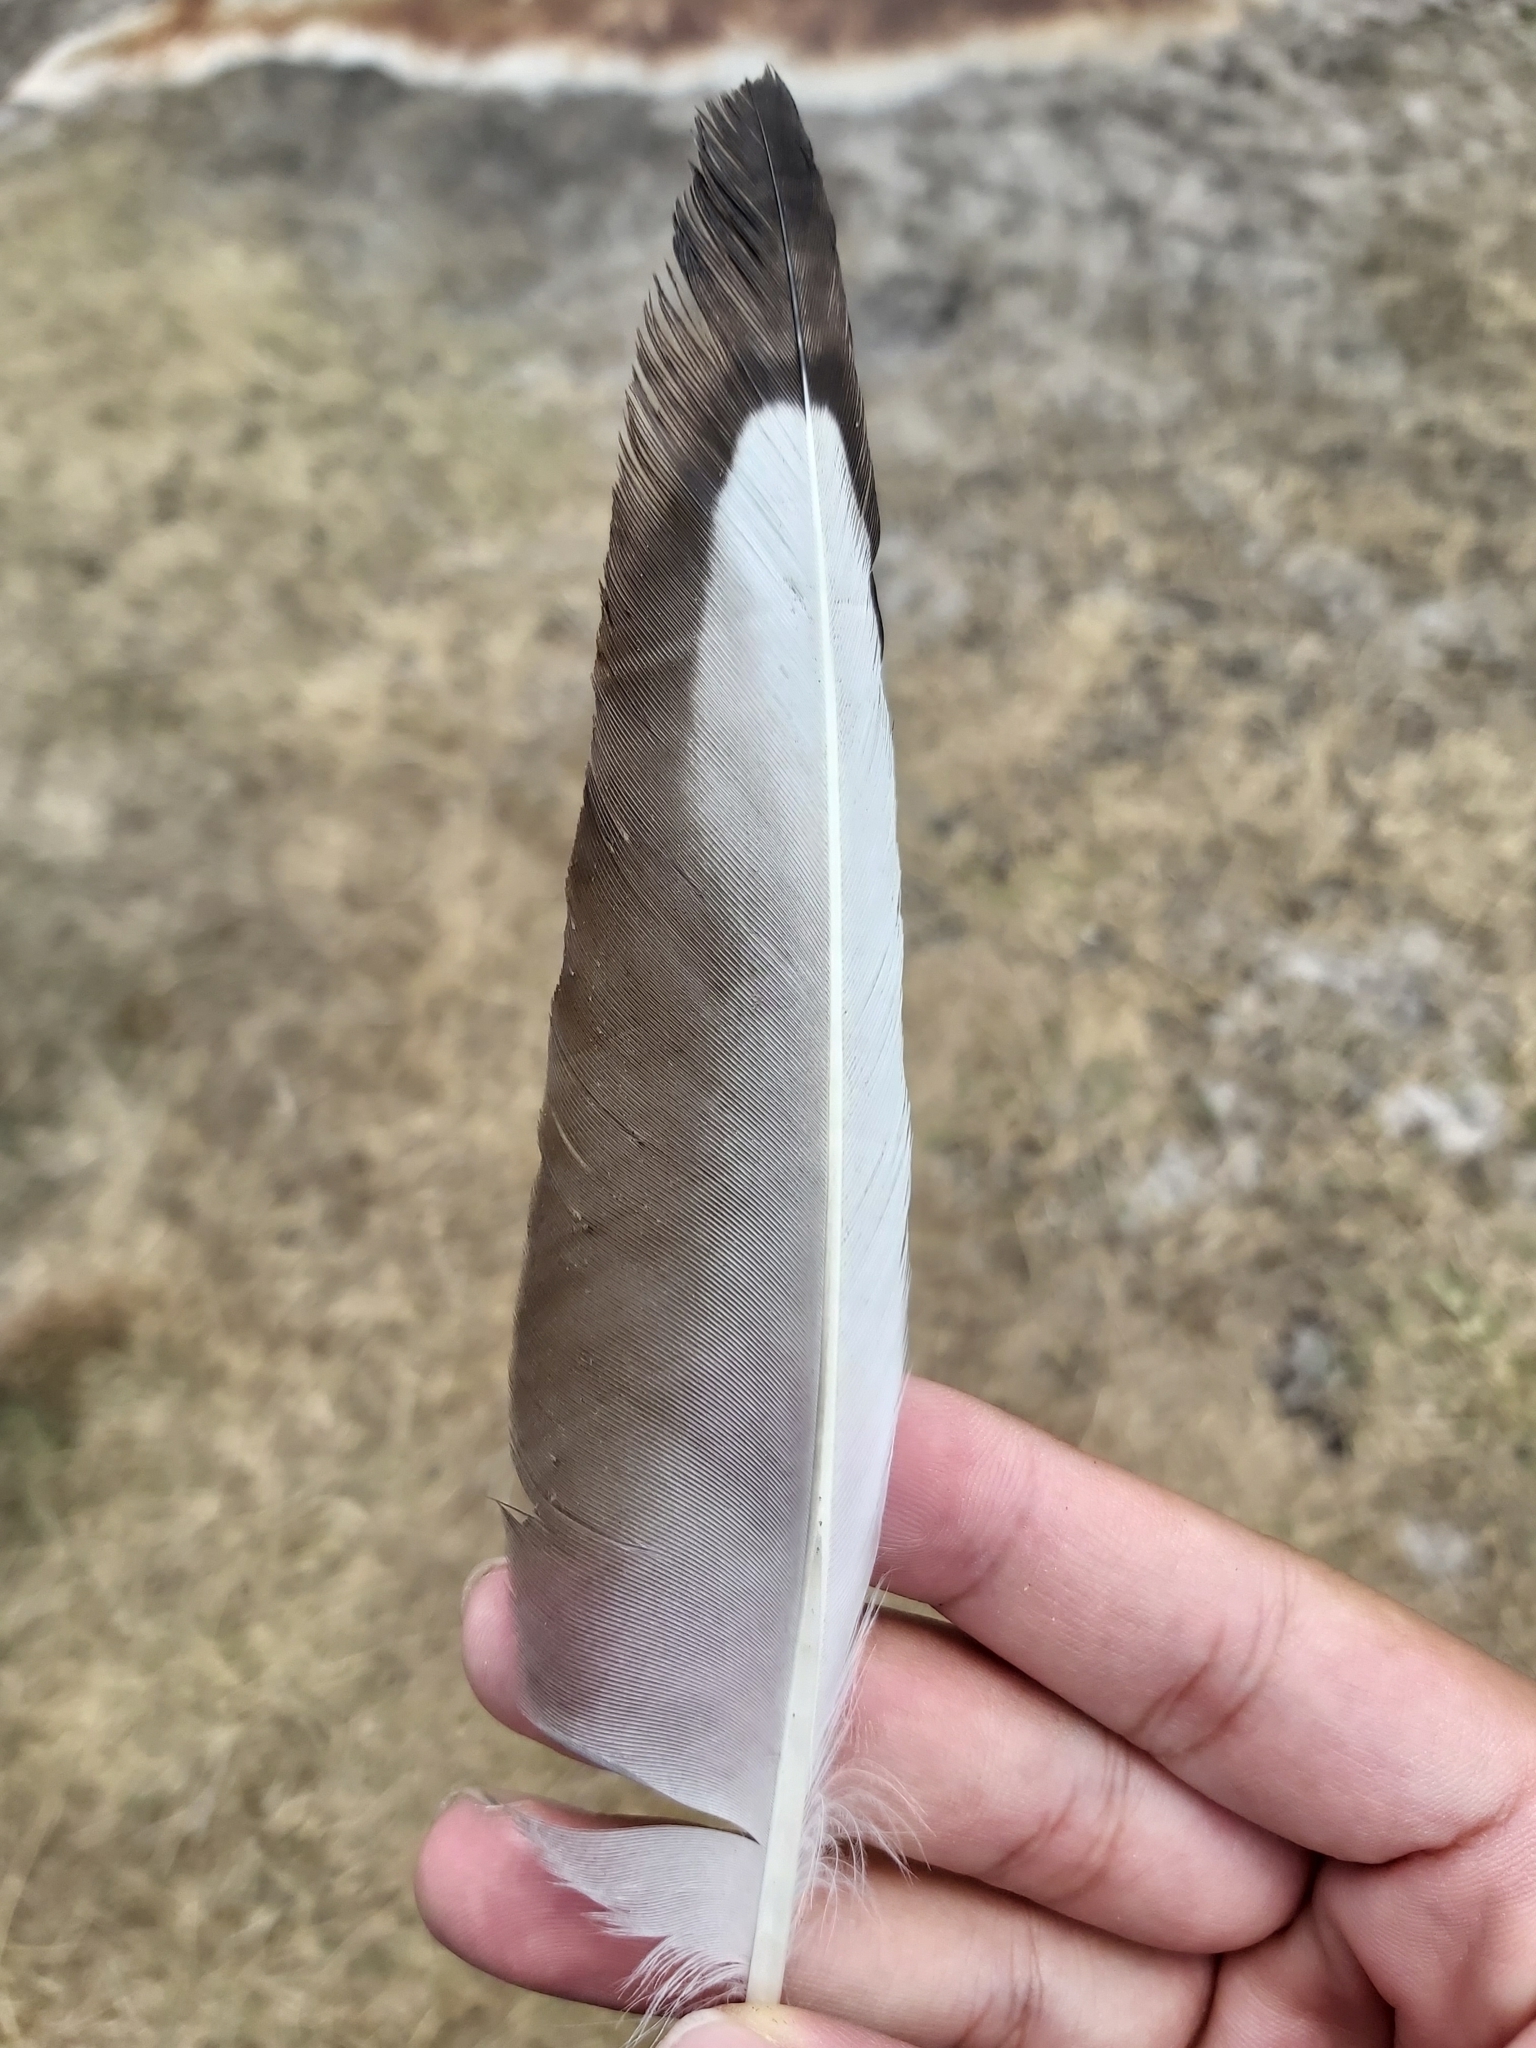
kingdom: Animalia
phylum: Chordata
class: Aves
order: Charadriiformes
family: Laridae
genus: Chroicocephalus
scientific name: Chroicocephalus novaehollandiae
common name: Silver gull
